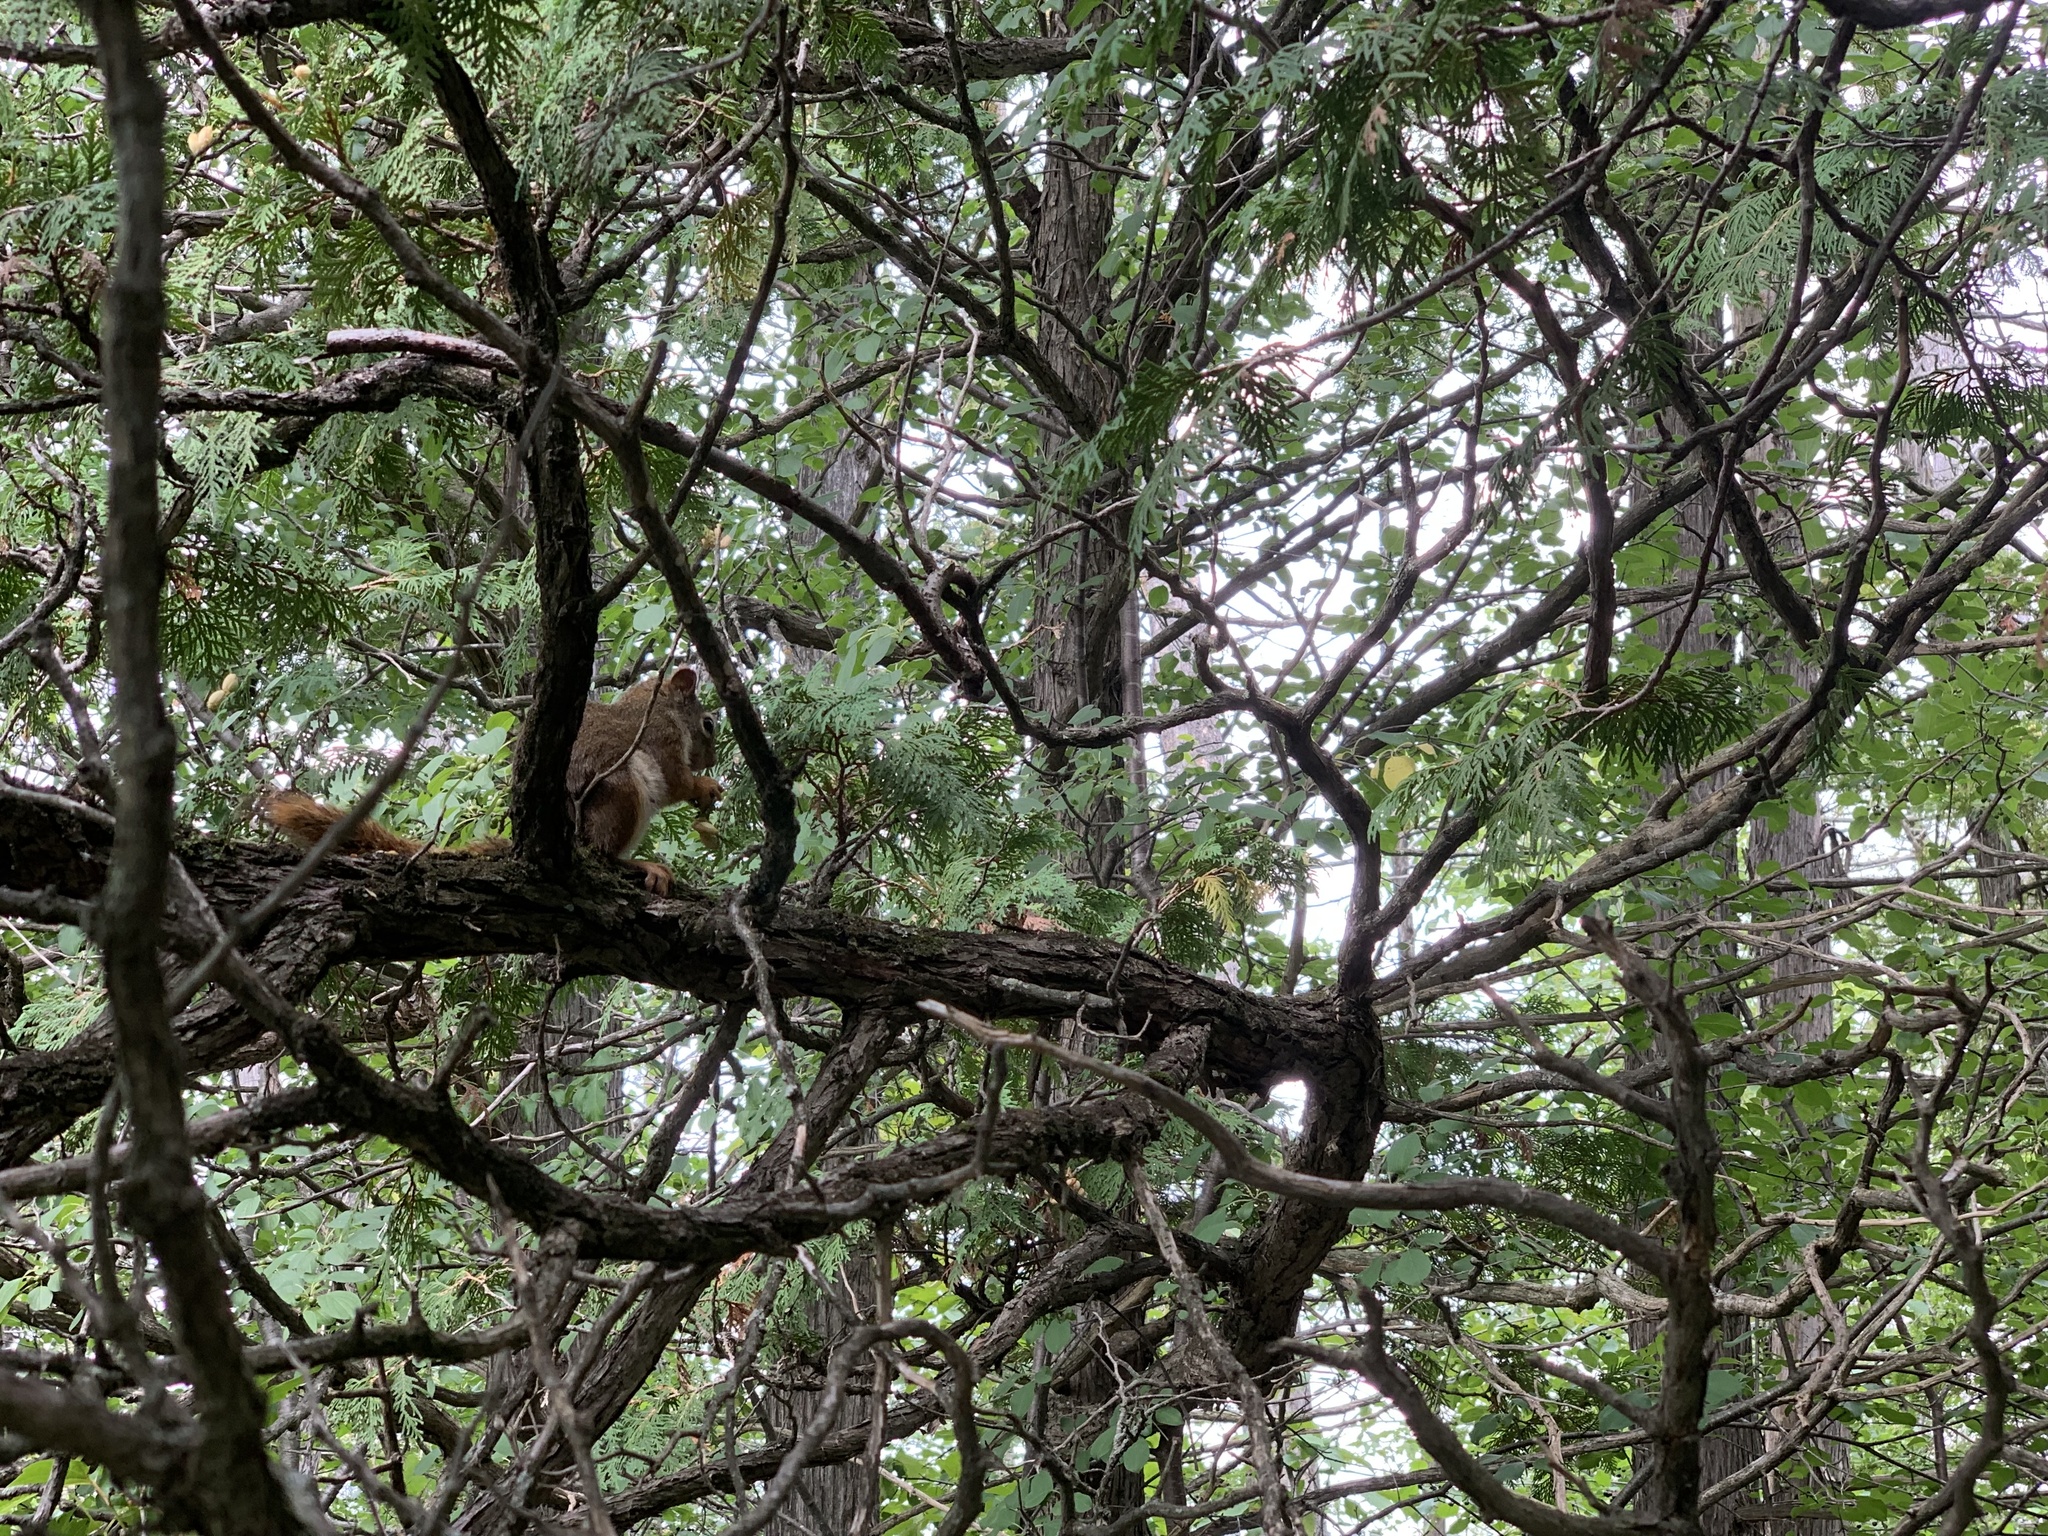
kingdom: Animalia
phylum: Chordata
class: Mammalia
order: Rodentia
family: Sciuridae
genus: Tamiasciurus
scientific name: Tamiasciurus hudsonicus
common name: Red squirrel
